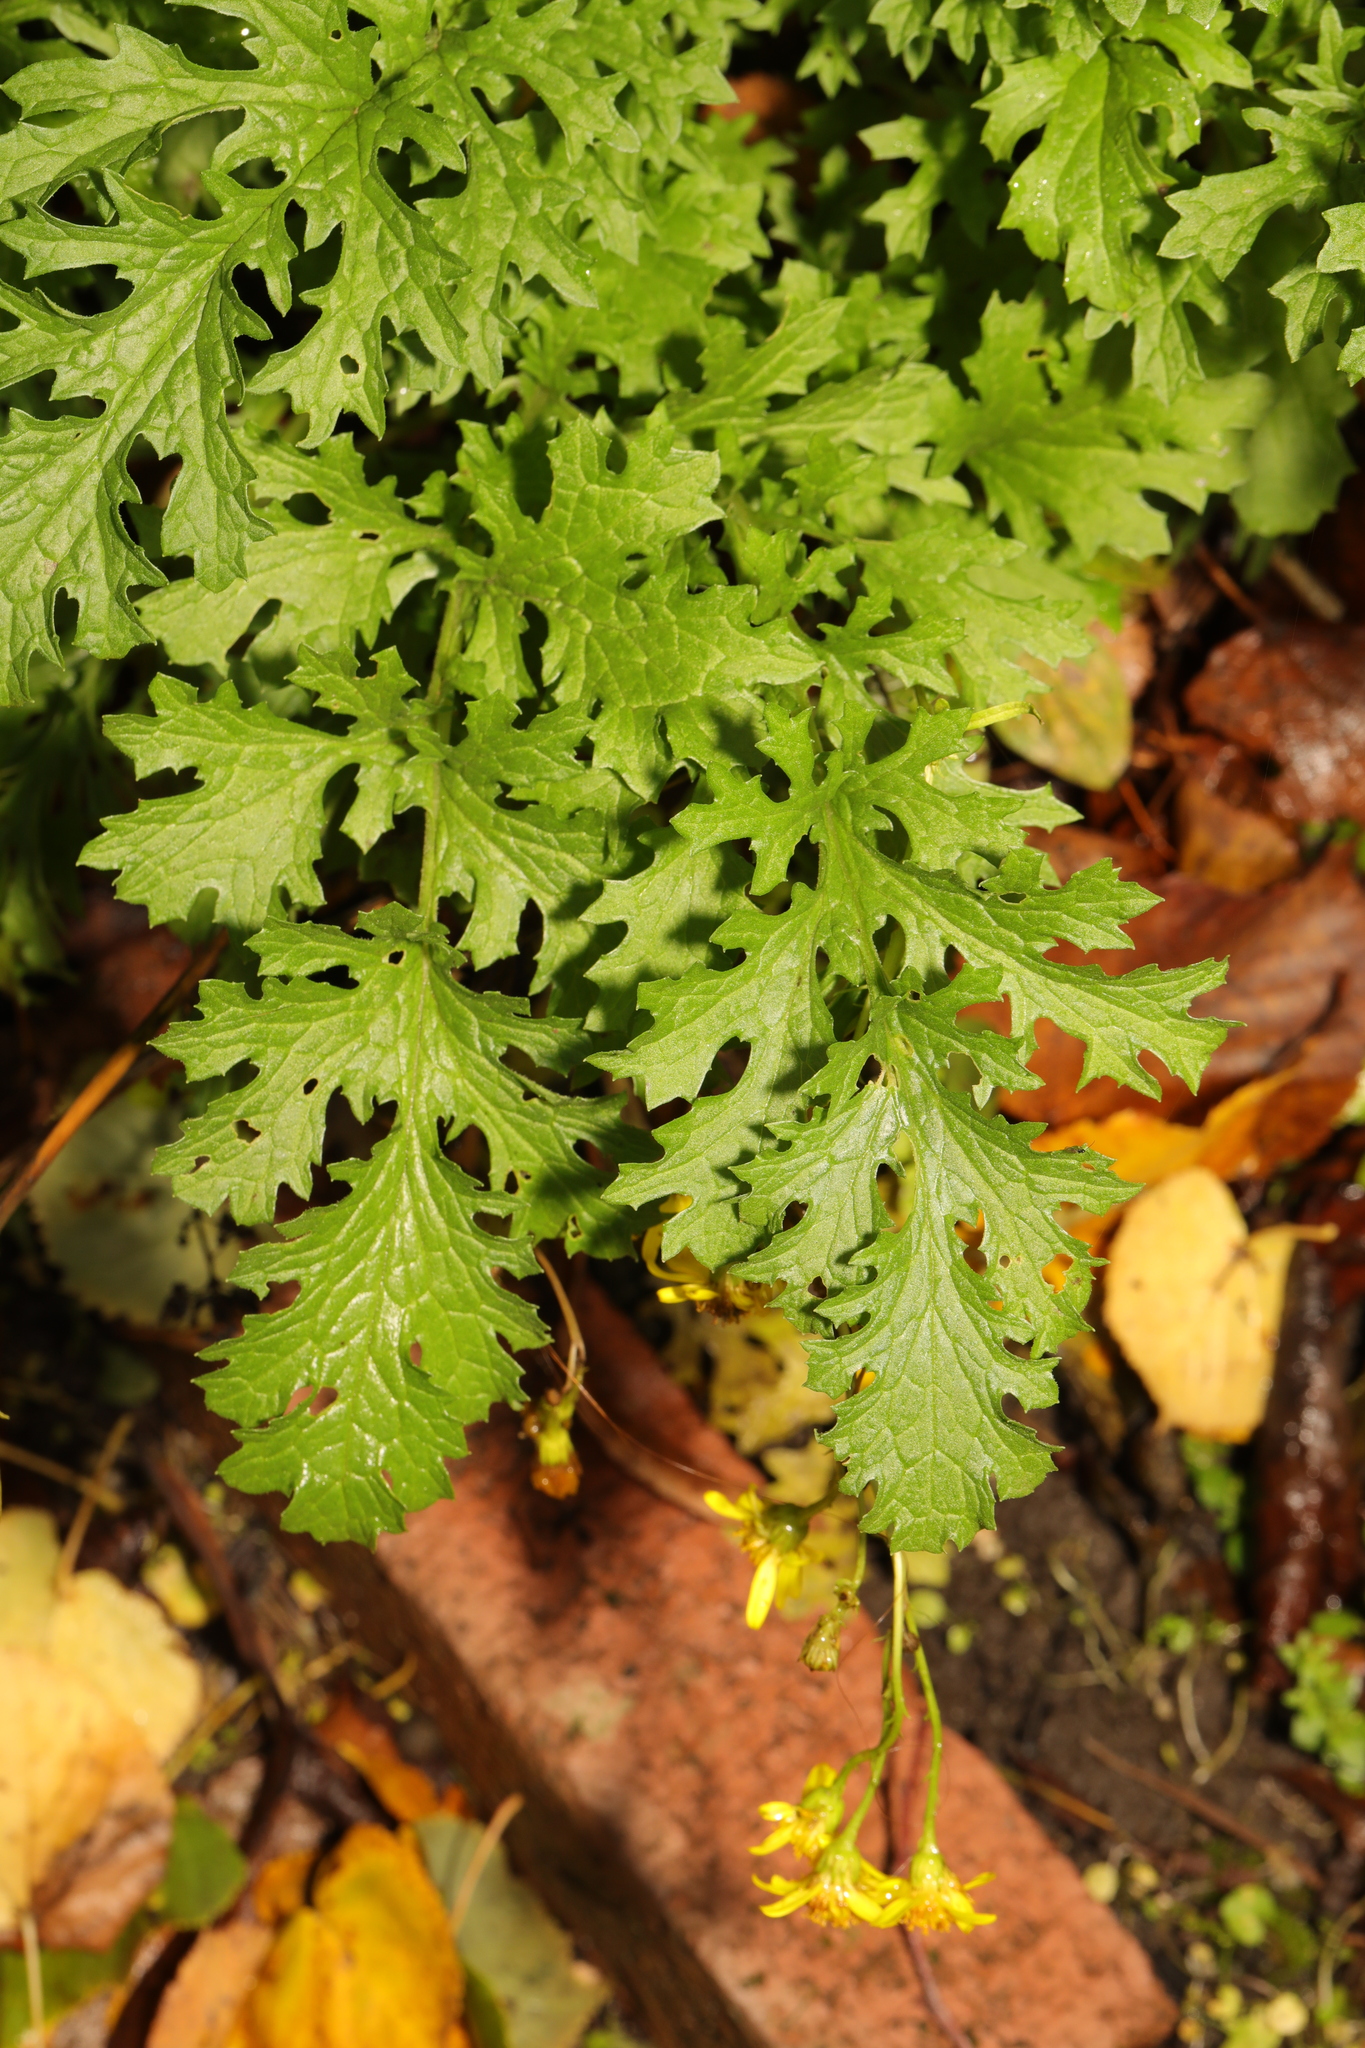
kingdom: Plantae
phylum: Tracheophyta
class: Magnoliopsida
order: Asterales
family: Asteraceae
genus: Jacobaea
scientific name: Jacobaea vulgaris
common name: Stinking willie
